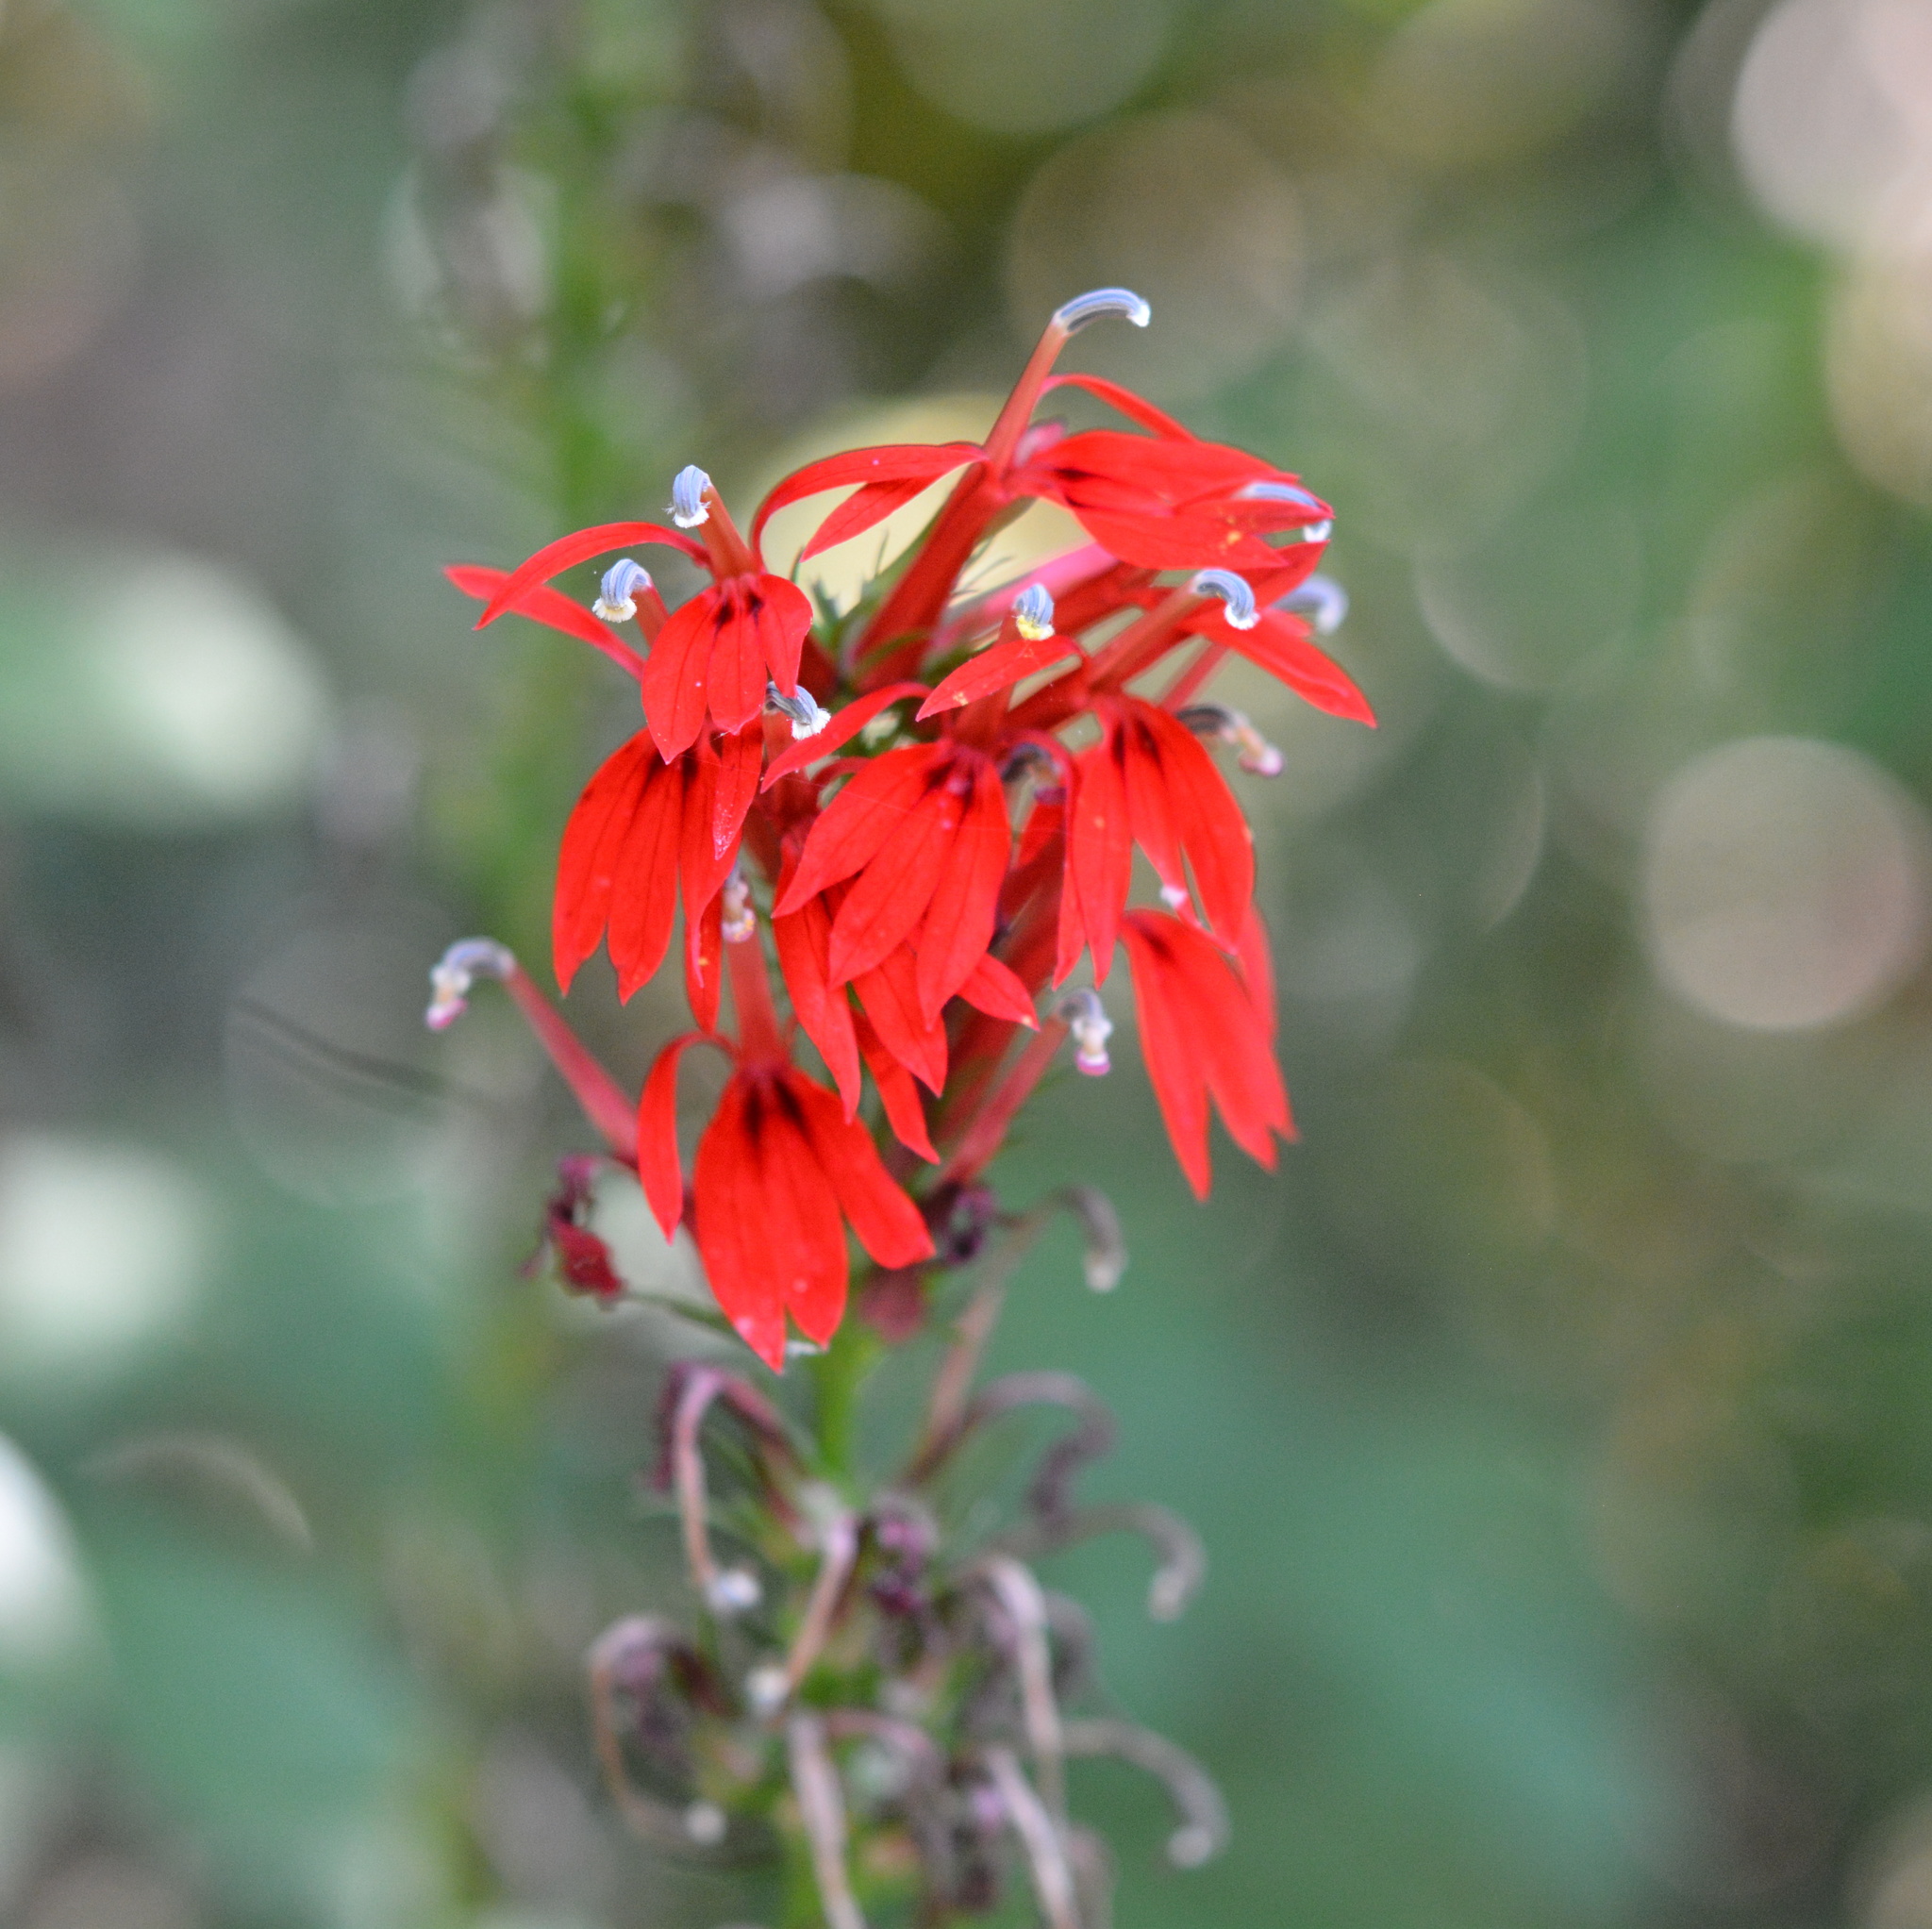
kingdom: Plantae
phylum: Tracheophyta
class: Magnoliopsida
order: Asterales
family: Campanulaceae
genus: Lobelia
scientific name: Lobelia cardinalis
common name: Cardinal flower
